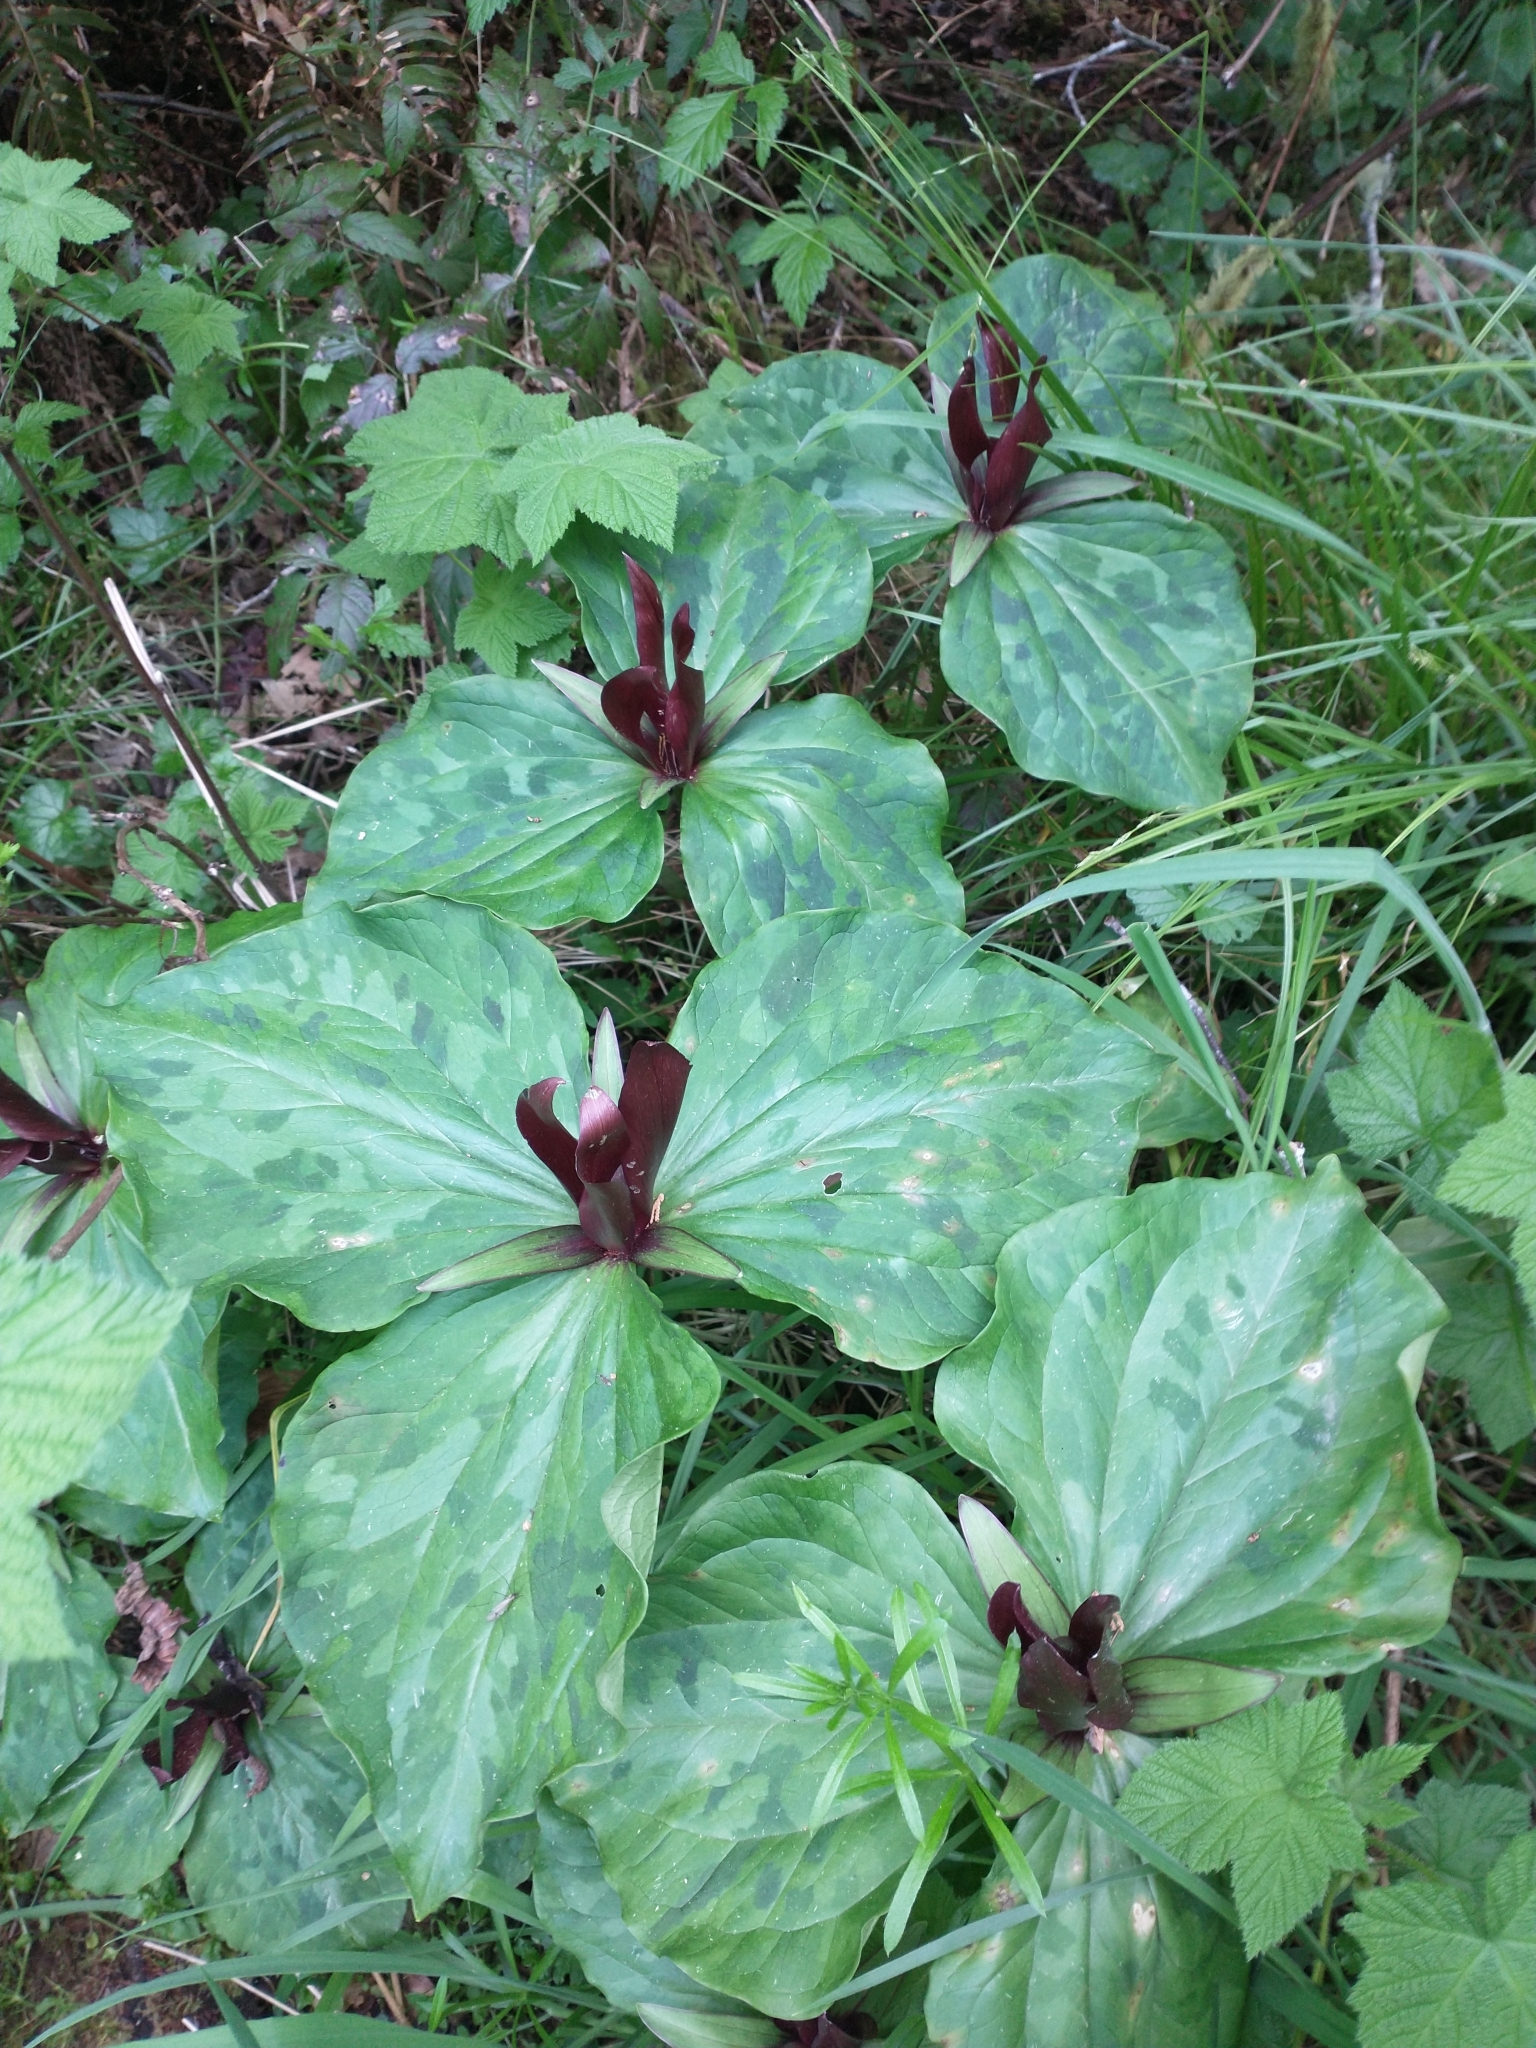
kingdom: Plantae
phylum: Tracheophyta
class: Liliopsida
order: Liliales
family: Melanthiaceae
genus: Trillium
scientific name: Trillium kurabayashii
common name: Giant purple trillium
